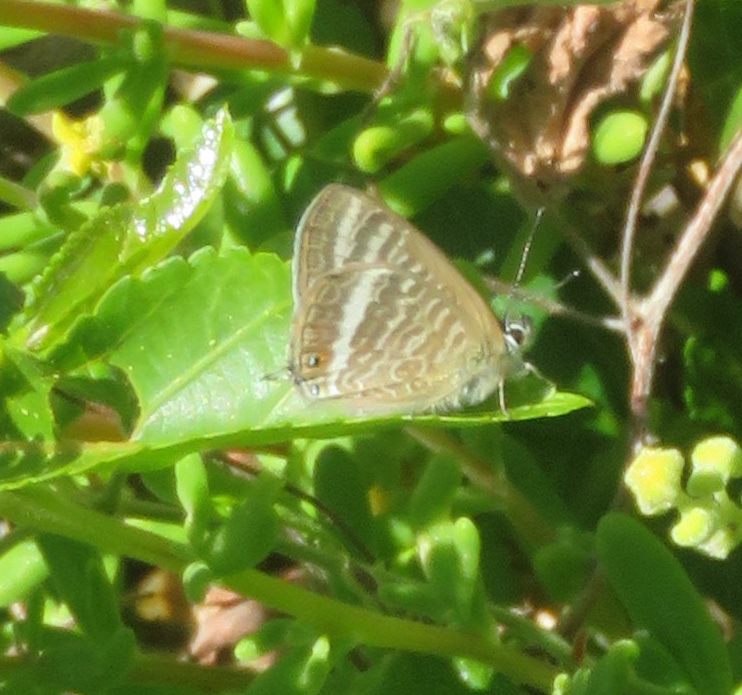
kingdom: Animalia
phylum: Arthropoda
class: Insecta
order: Lepidoptera
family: Lycaenidae
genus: Lampides
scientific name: Lampides boeticus
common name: Long-tailed blue
